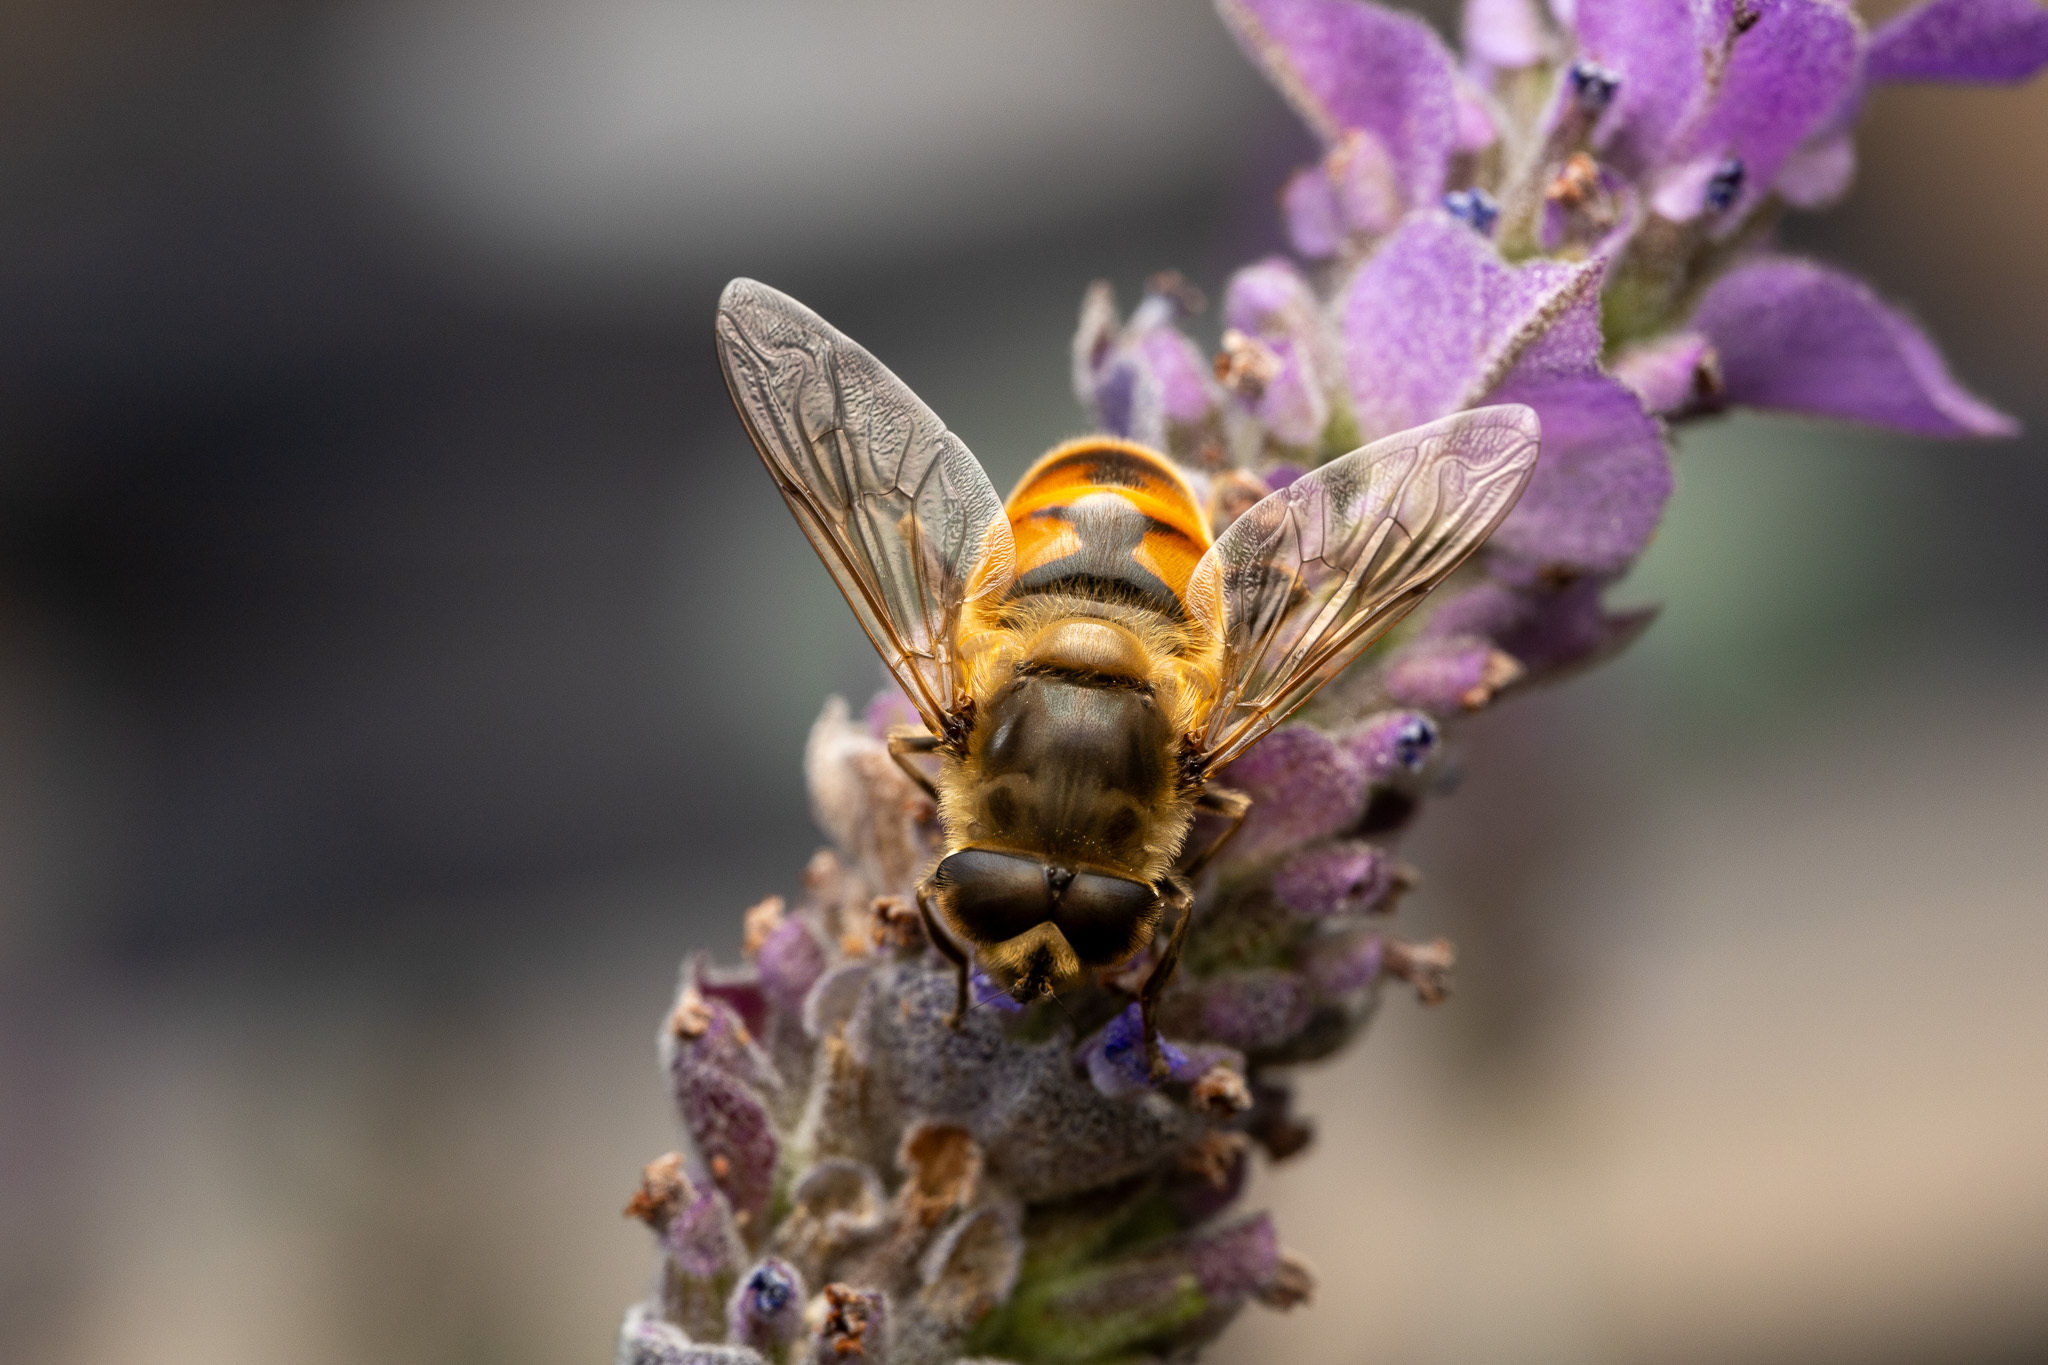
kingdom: Animalia
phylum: Arthropoda
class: Insecta
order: Diptera
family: Syrphidae
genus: Eristalis
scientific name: Eristalis tenax
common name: Drone fly
